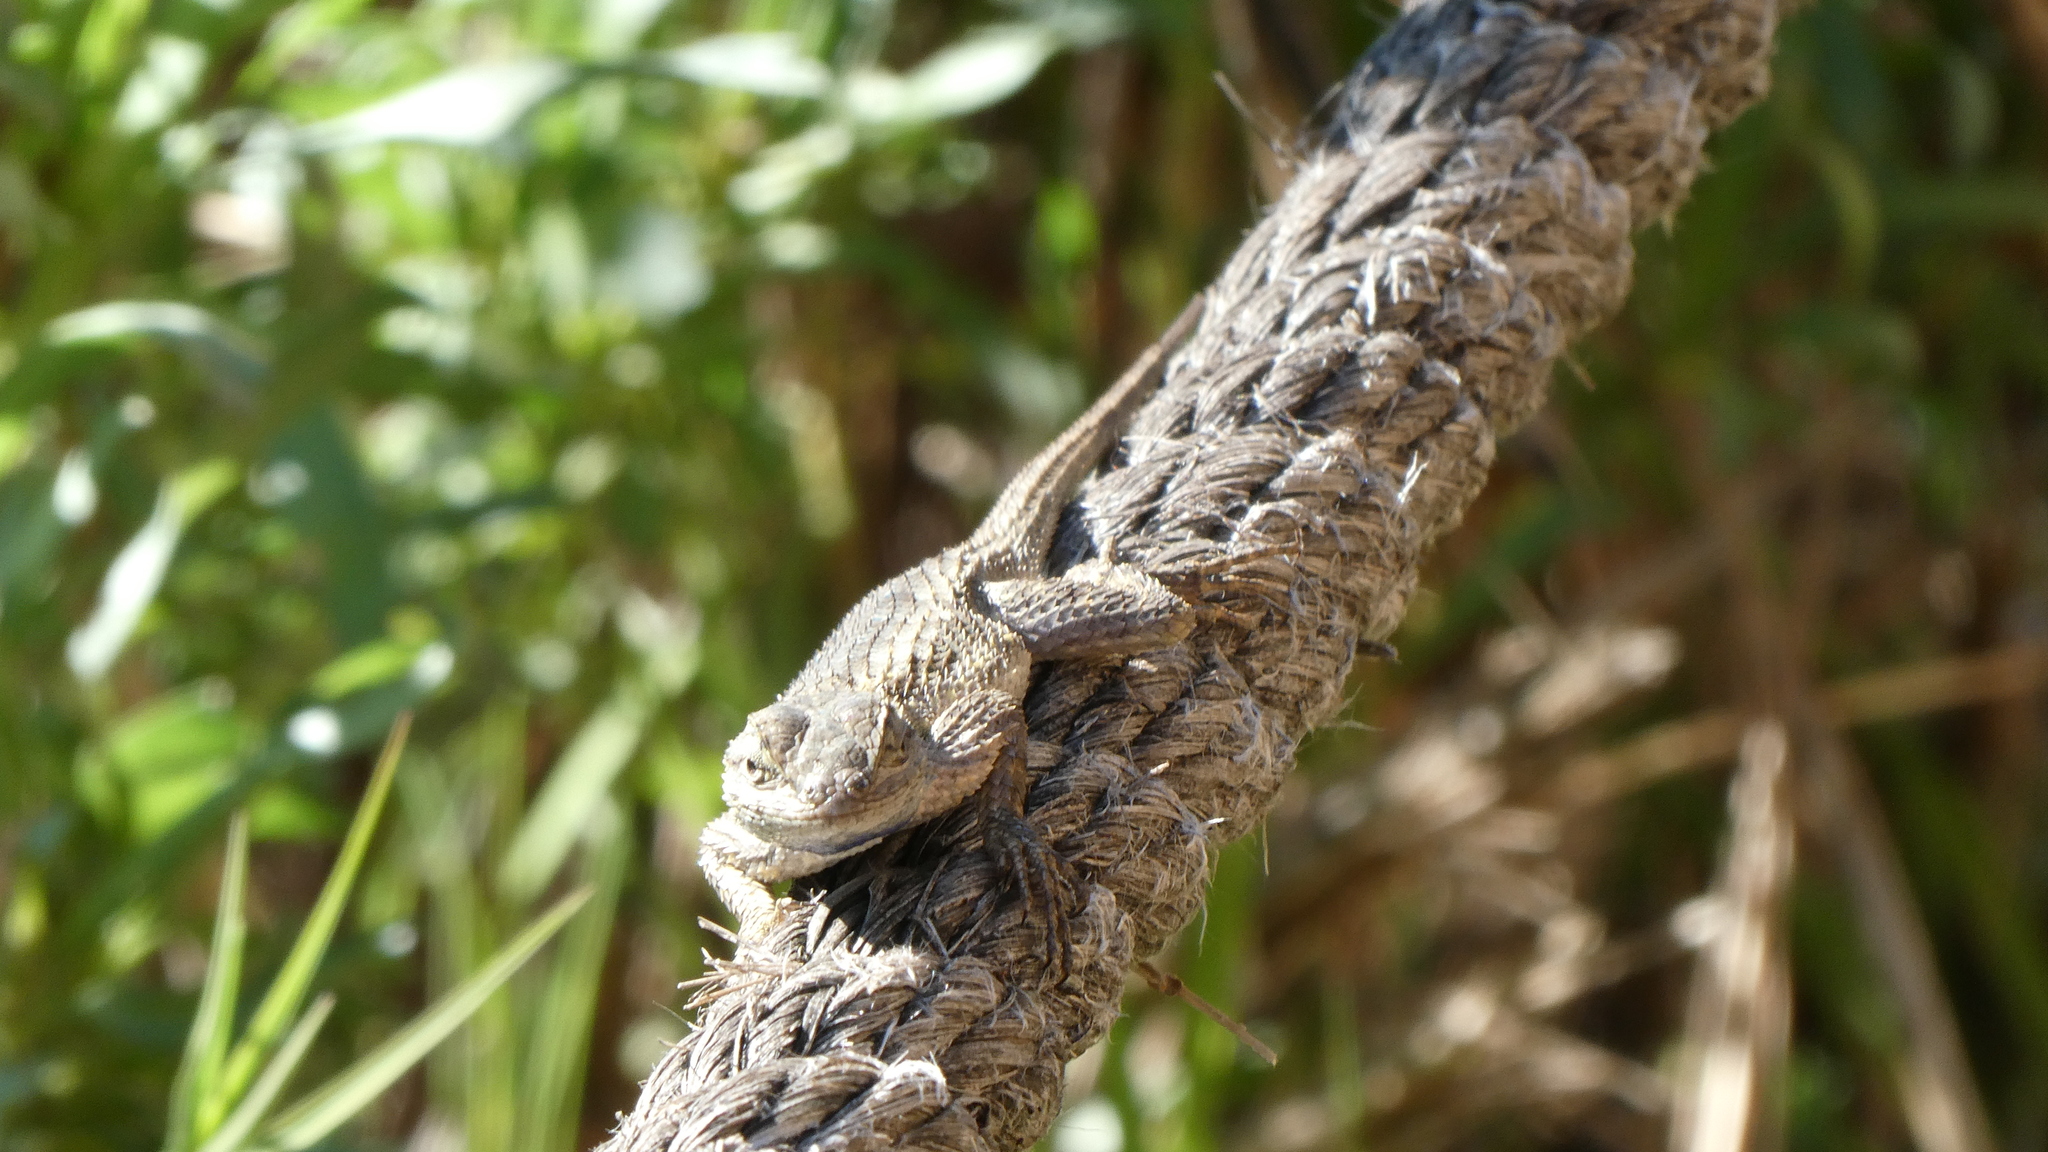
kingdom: Animalia
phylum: Chordata
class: Squamata
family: Phrynosomatidae
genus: Sceloporus
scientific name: Sceloporus occidentalis
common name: Western fence lizard
